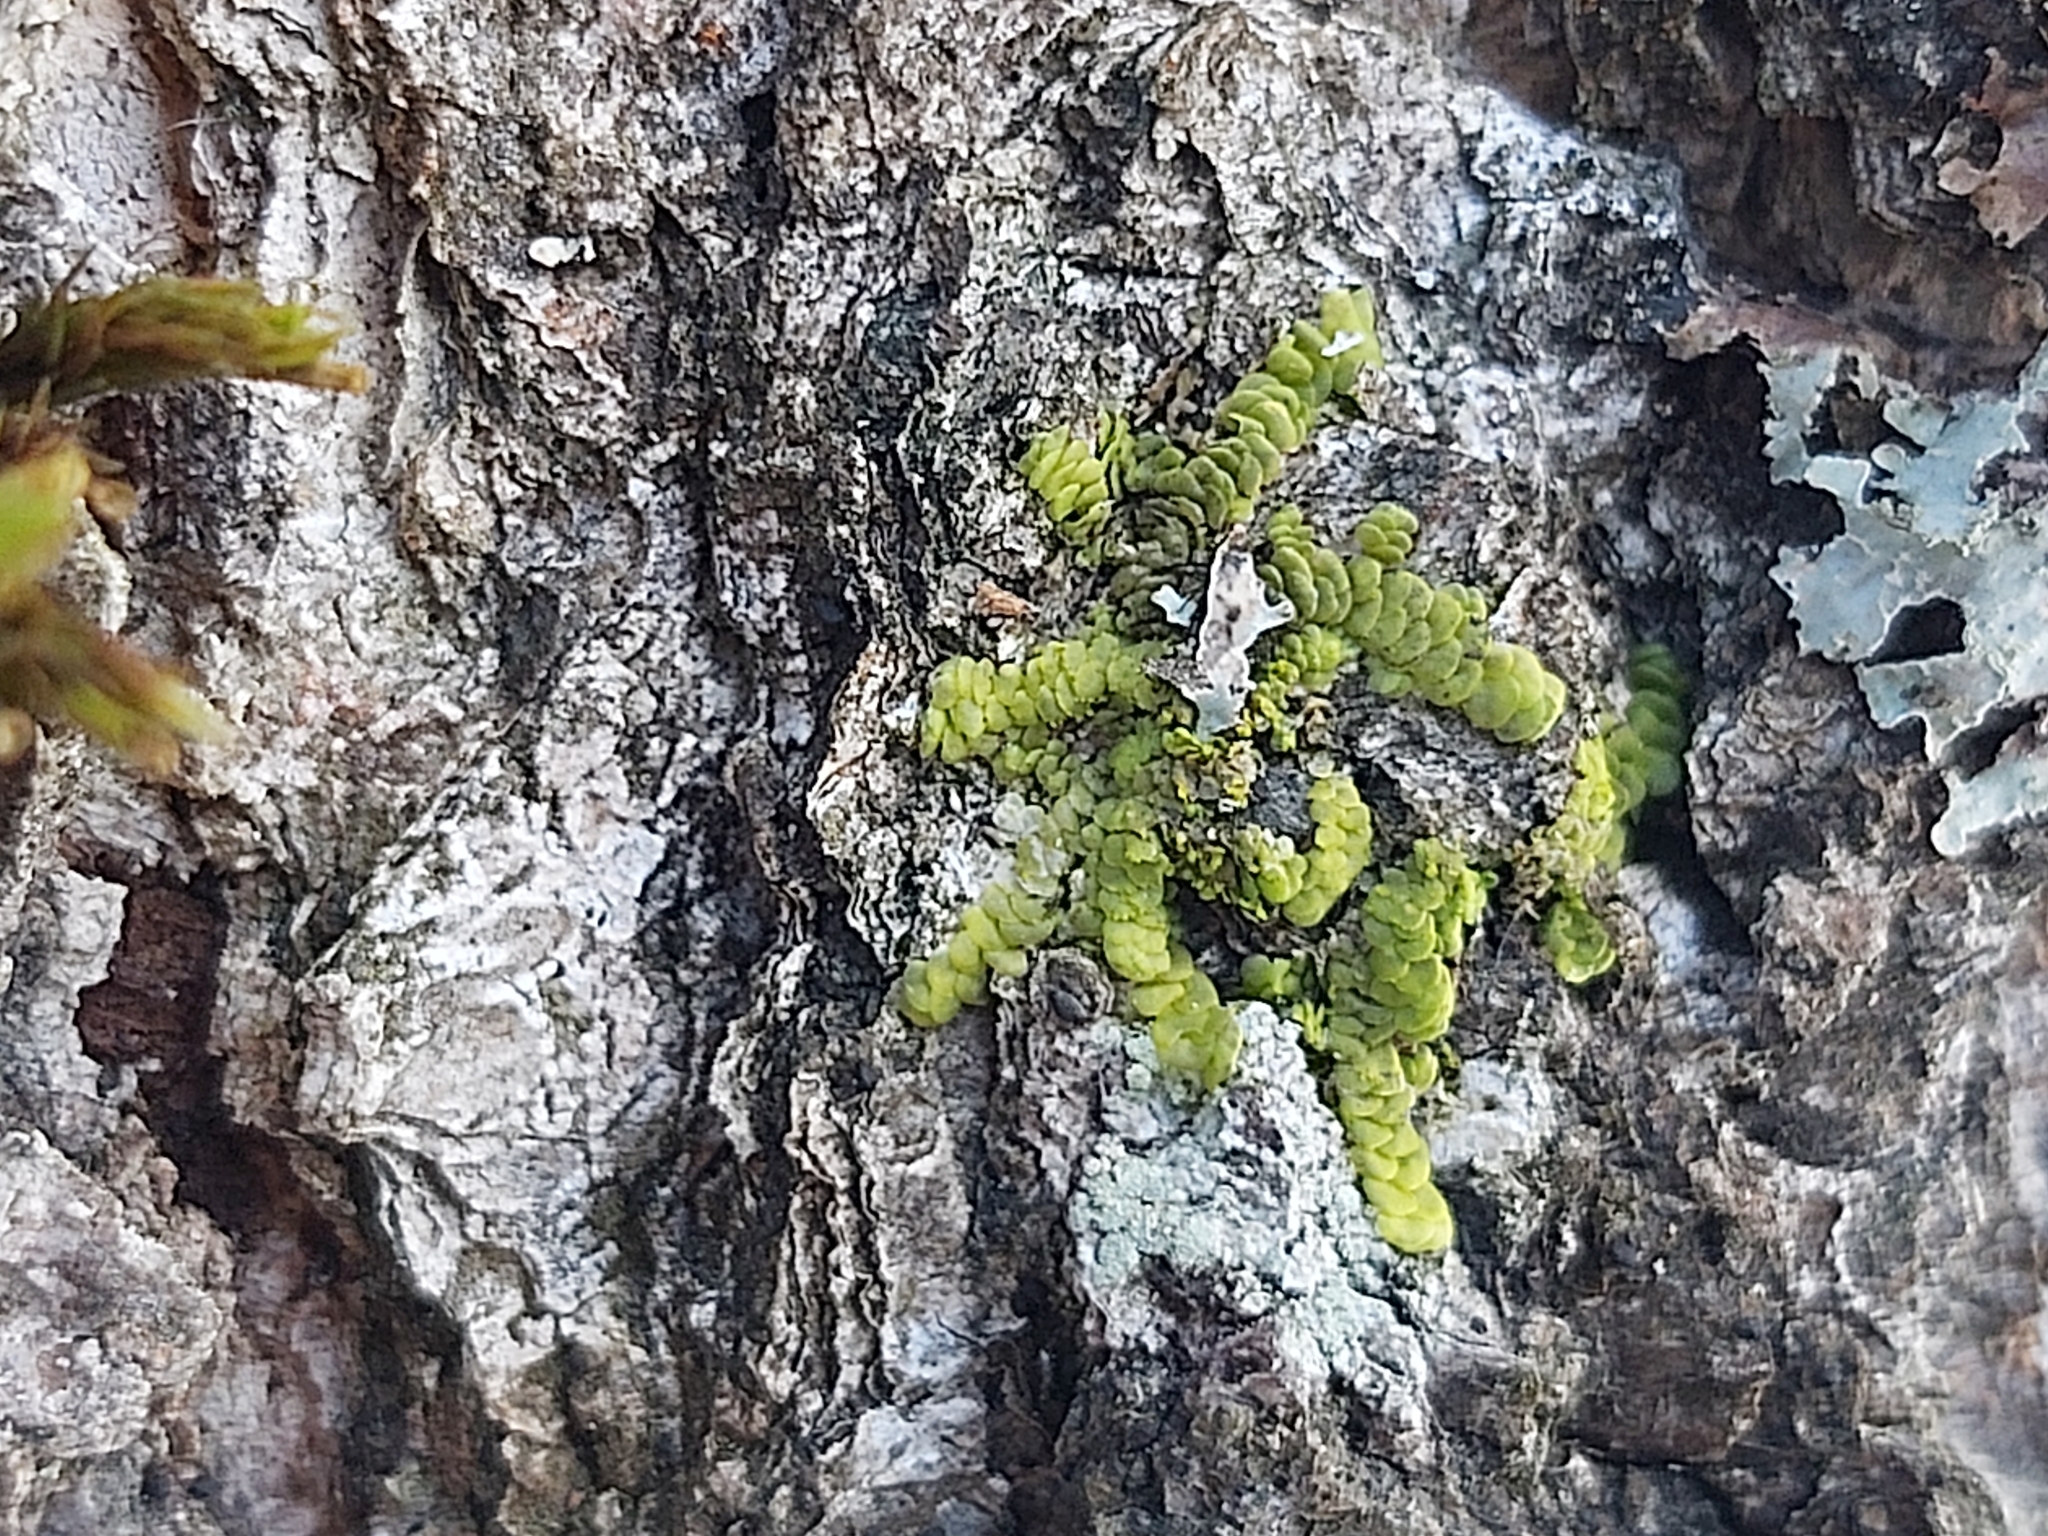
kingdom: Plantae
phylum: Marchantiophyta
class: Jungermanniopsida
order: Porellales
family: Radulaceae
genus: Radula
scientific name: Radula complanata
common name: Flat-leaved scalewort
